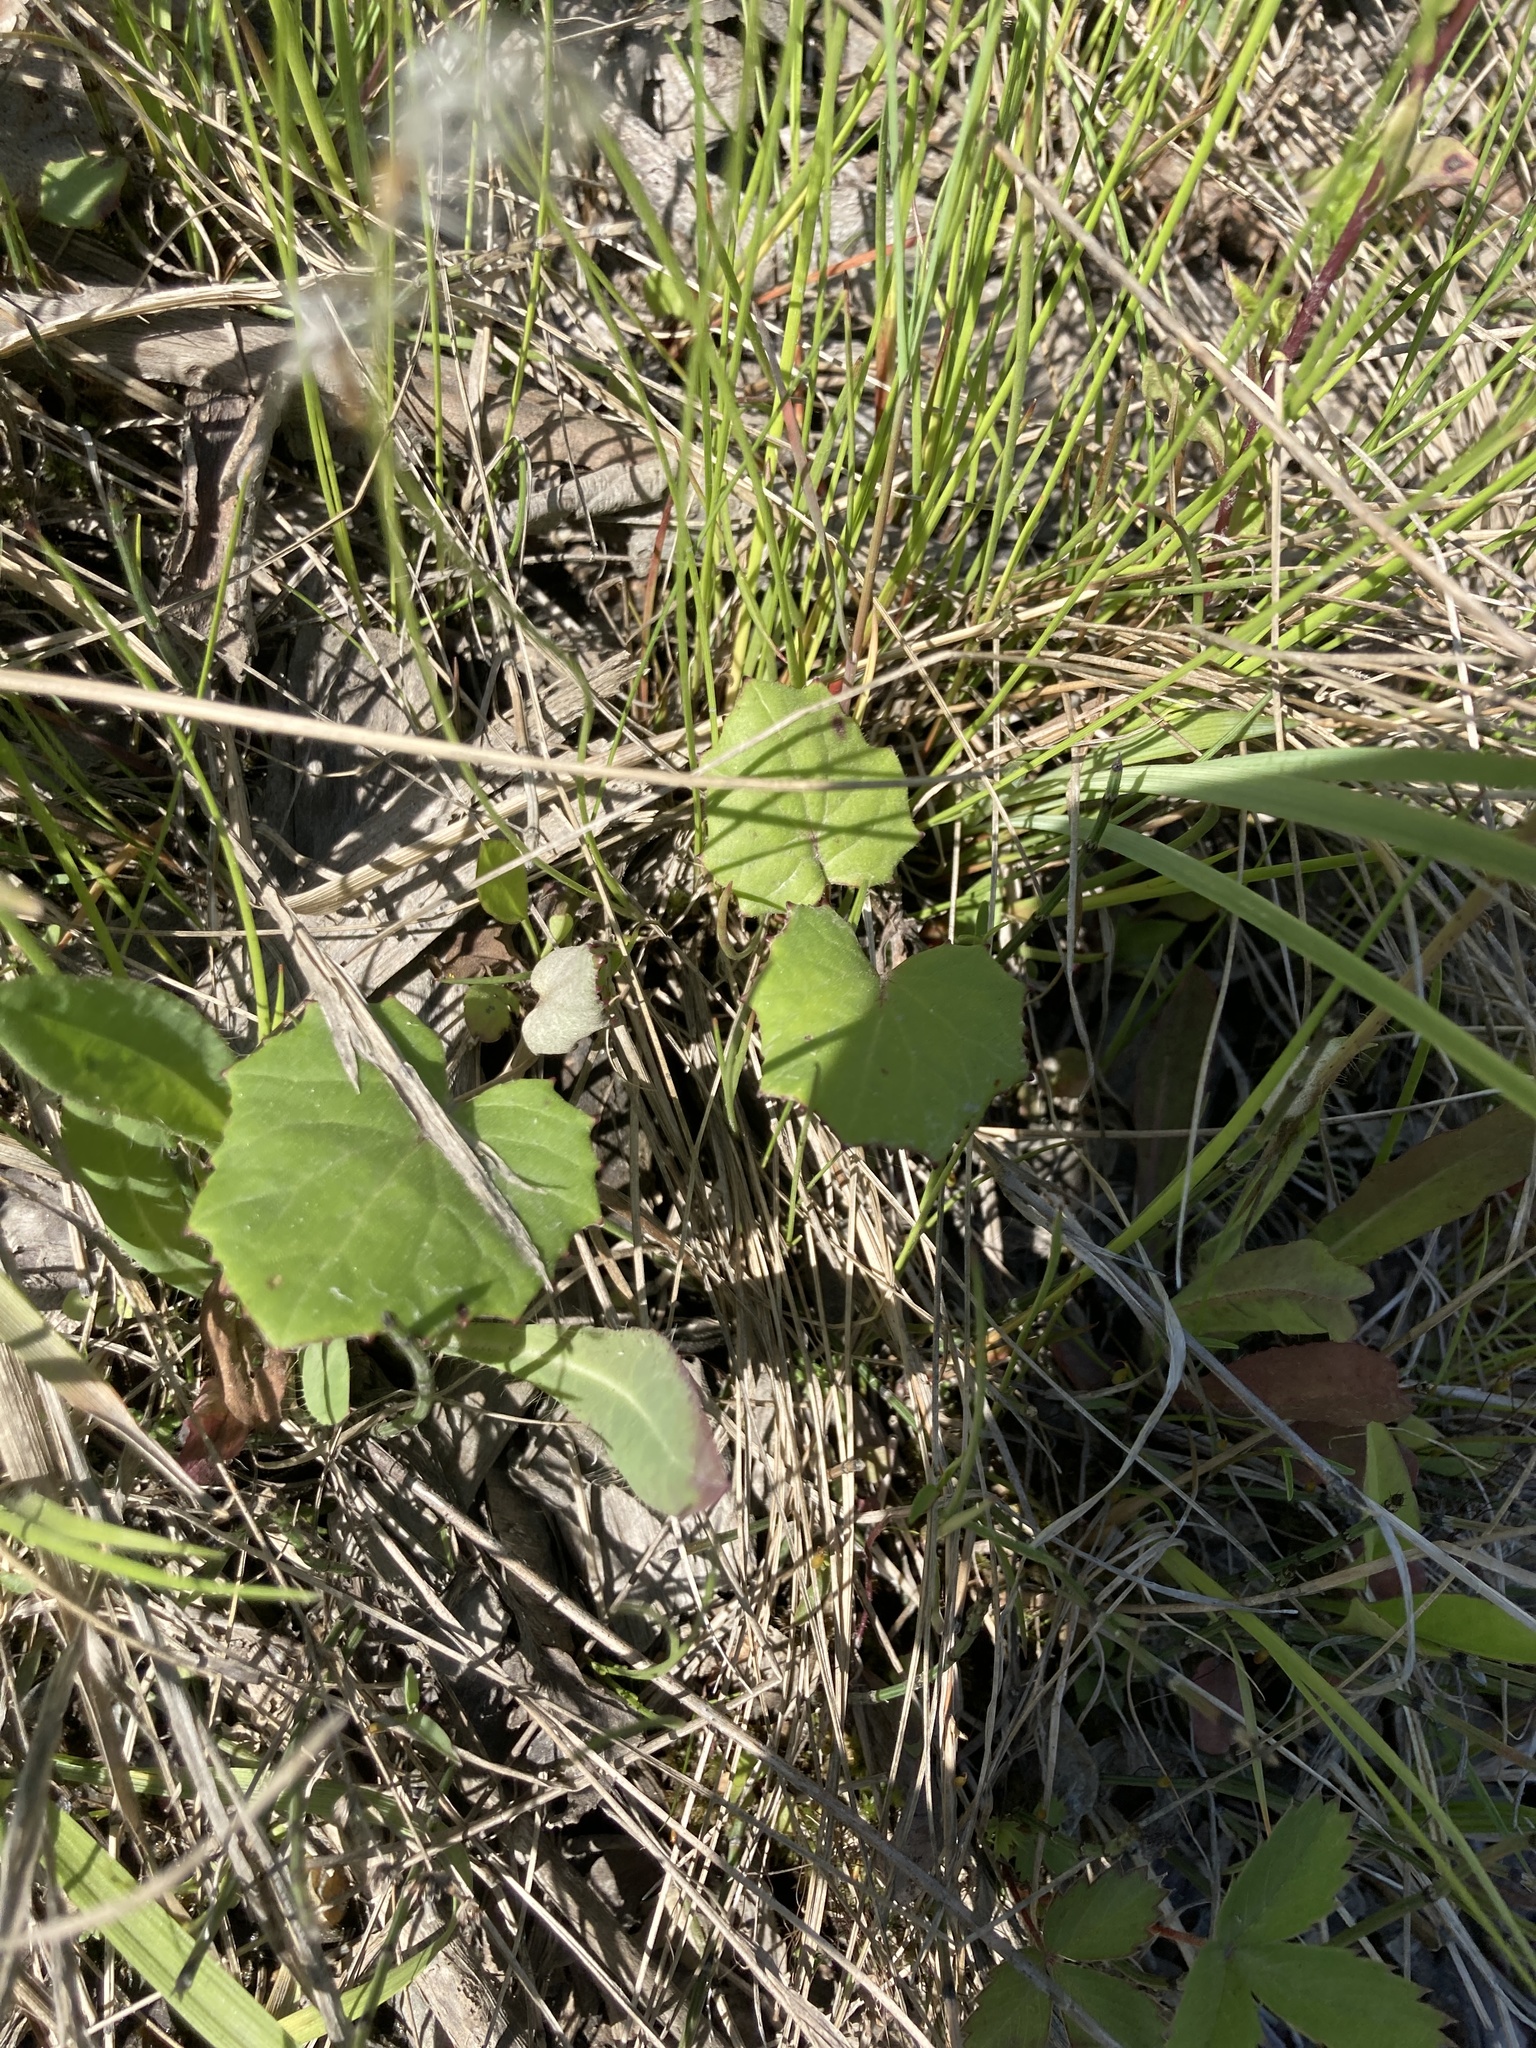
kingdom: Plantae
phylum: Tracheophyta
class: Magnoliopsida
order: Asterales
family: Asteraceae
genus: Tussilago
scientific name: Tussilago farfara
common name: Coltsfoot
